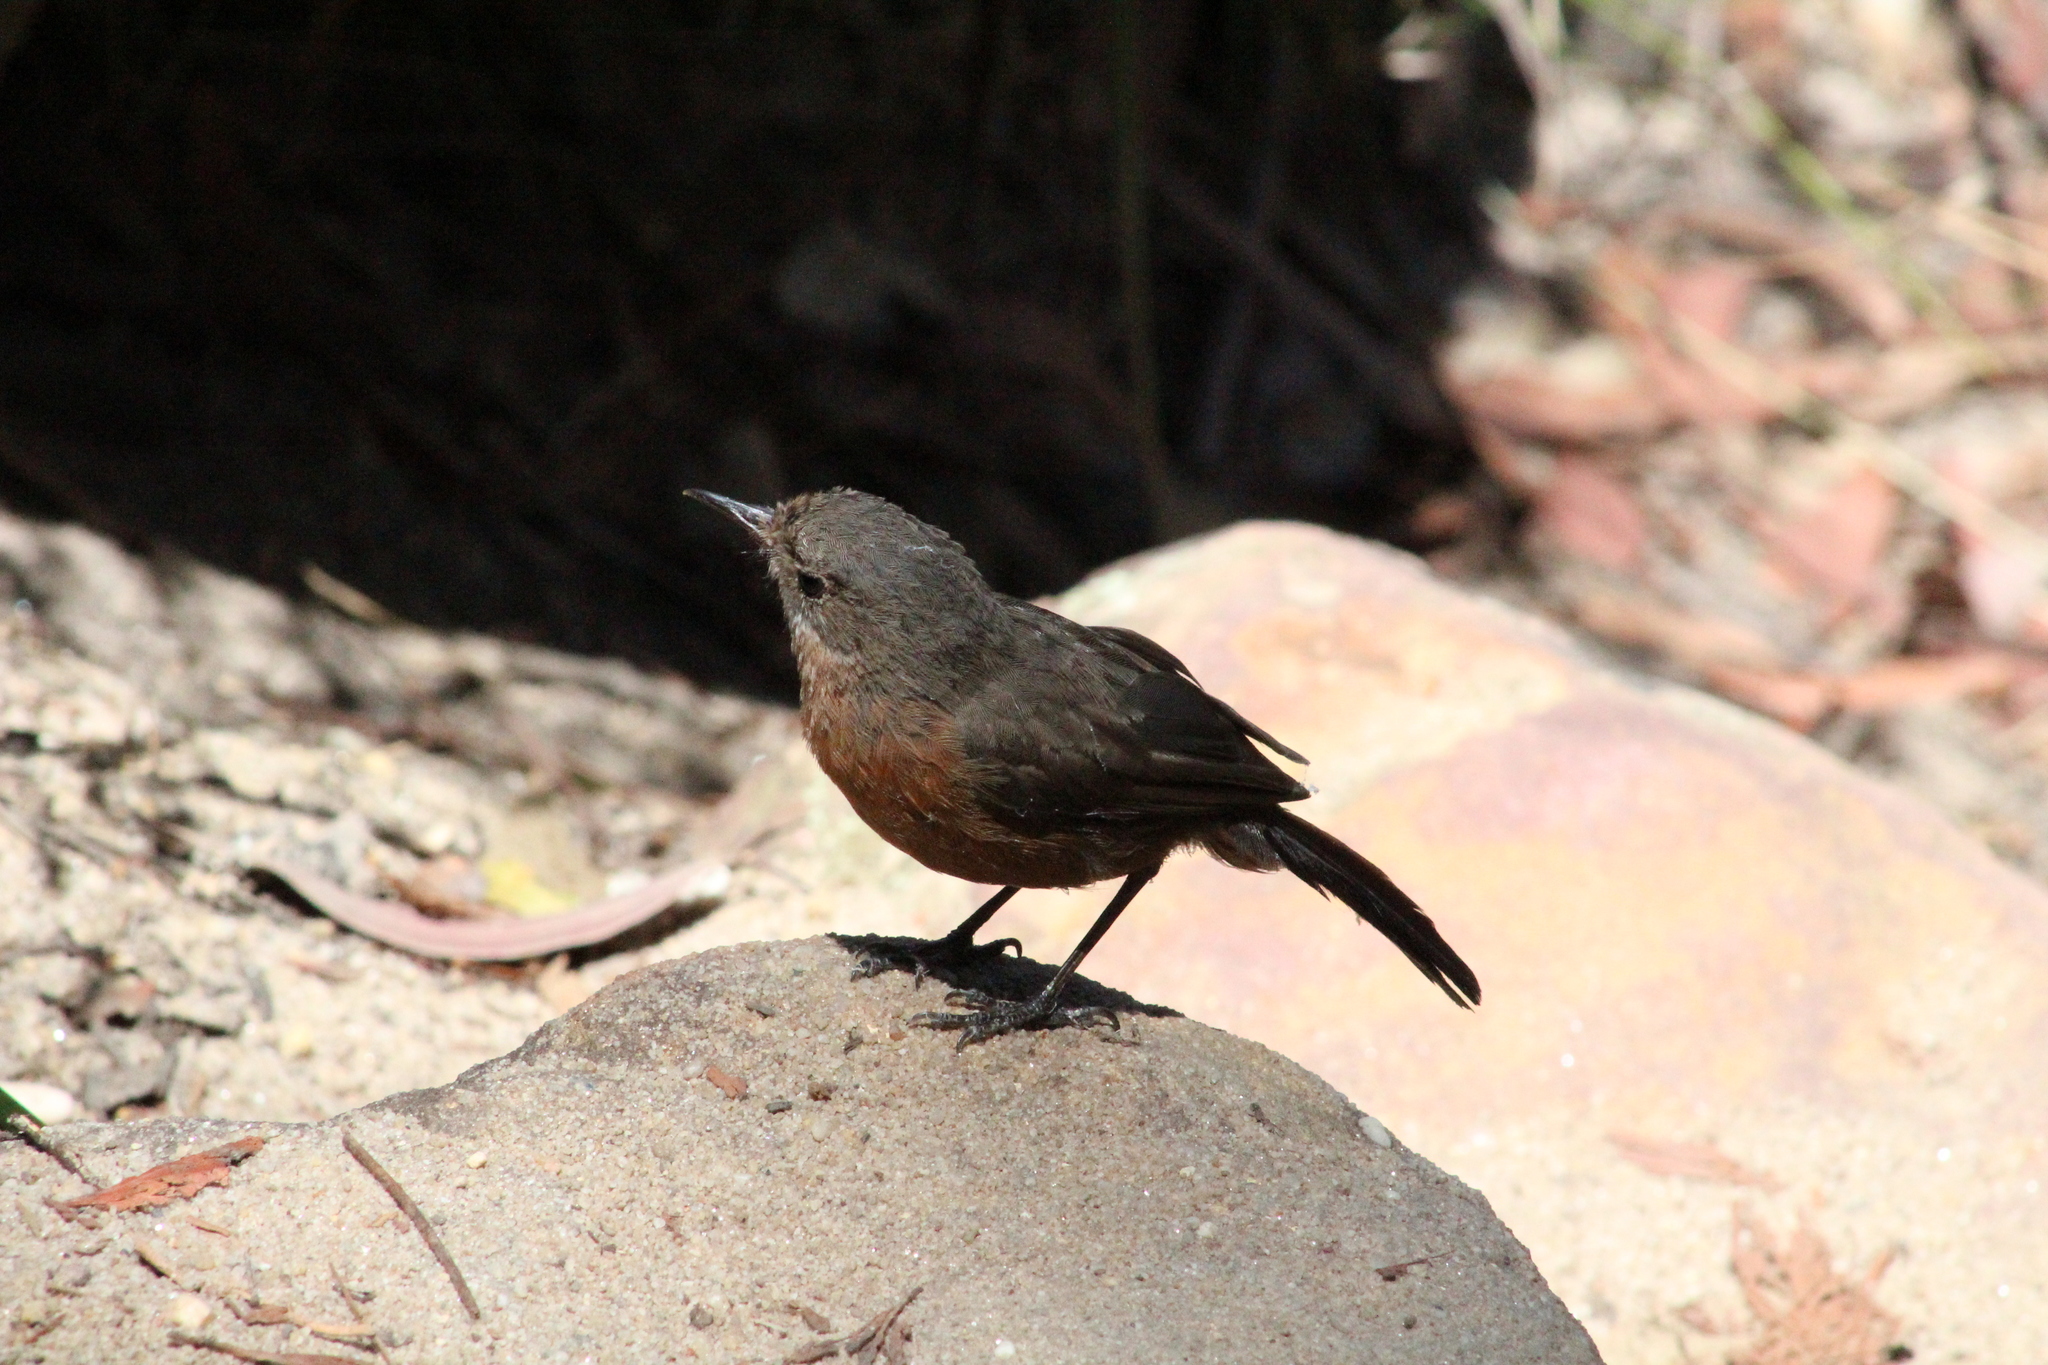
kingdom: Animalia
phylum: Chordata
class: Aves
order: Passeriformes
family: Acanthizidae
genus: Origma
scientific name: Origma solitaria
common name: Rockwarbler
